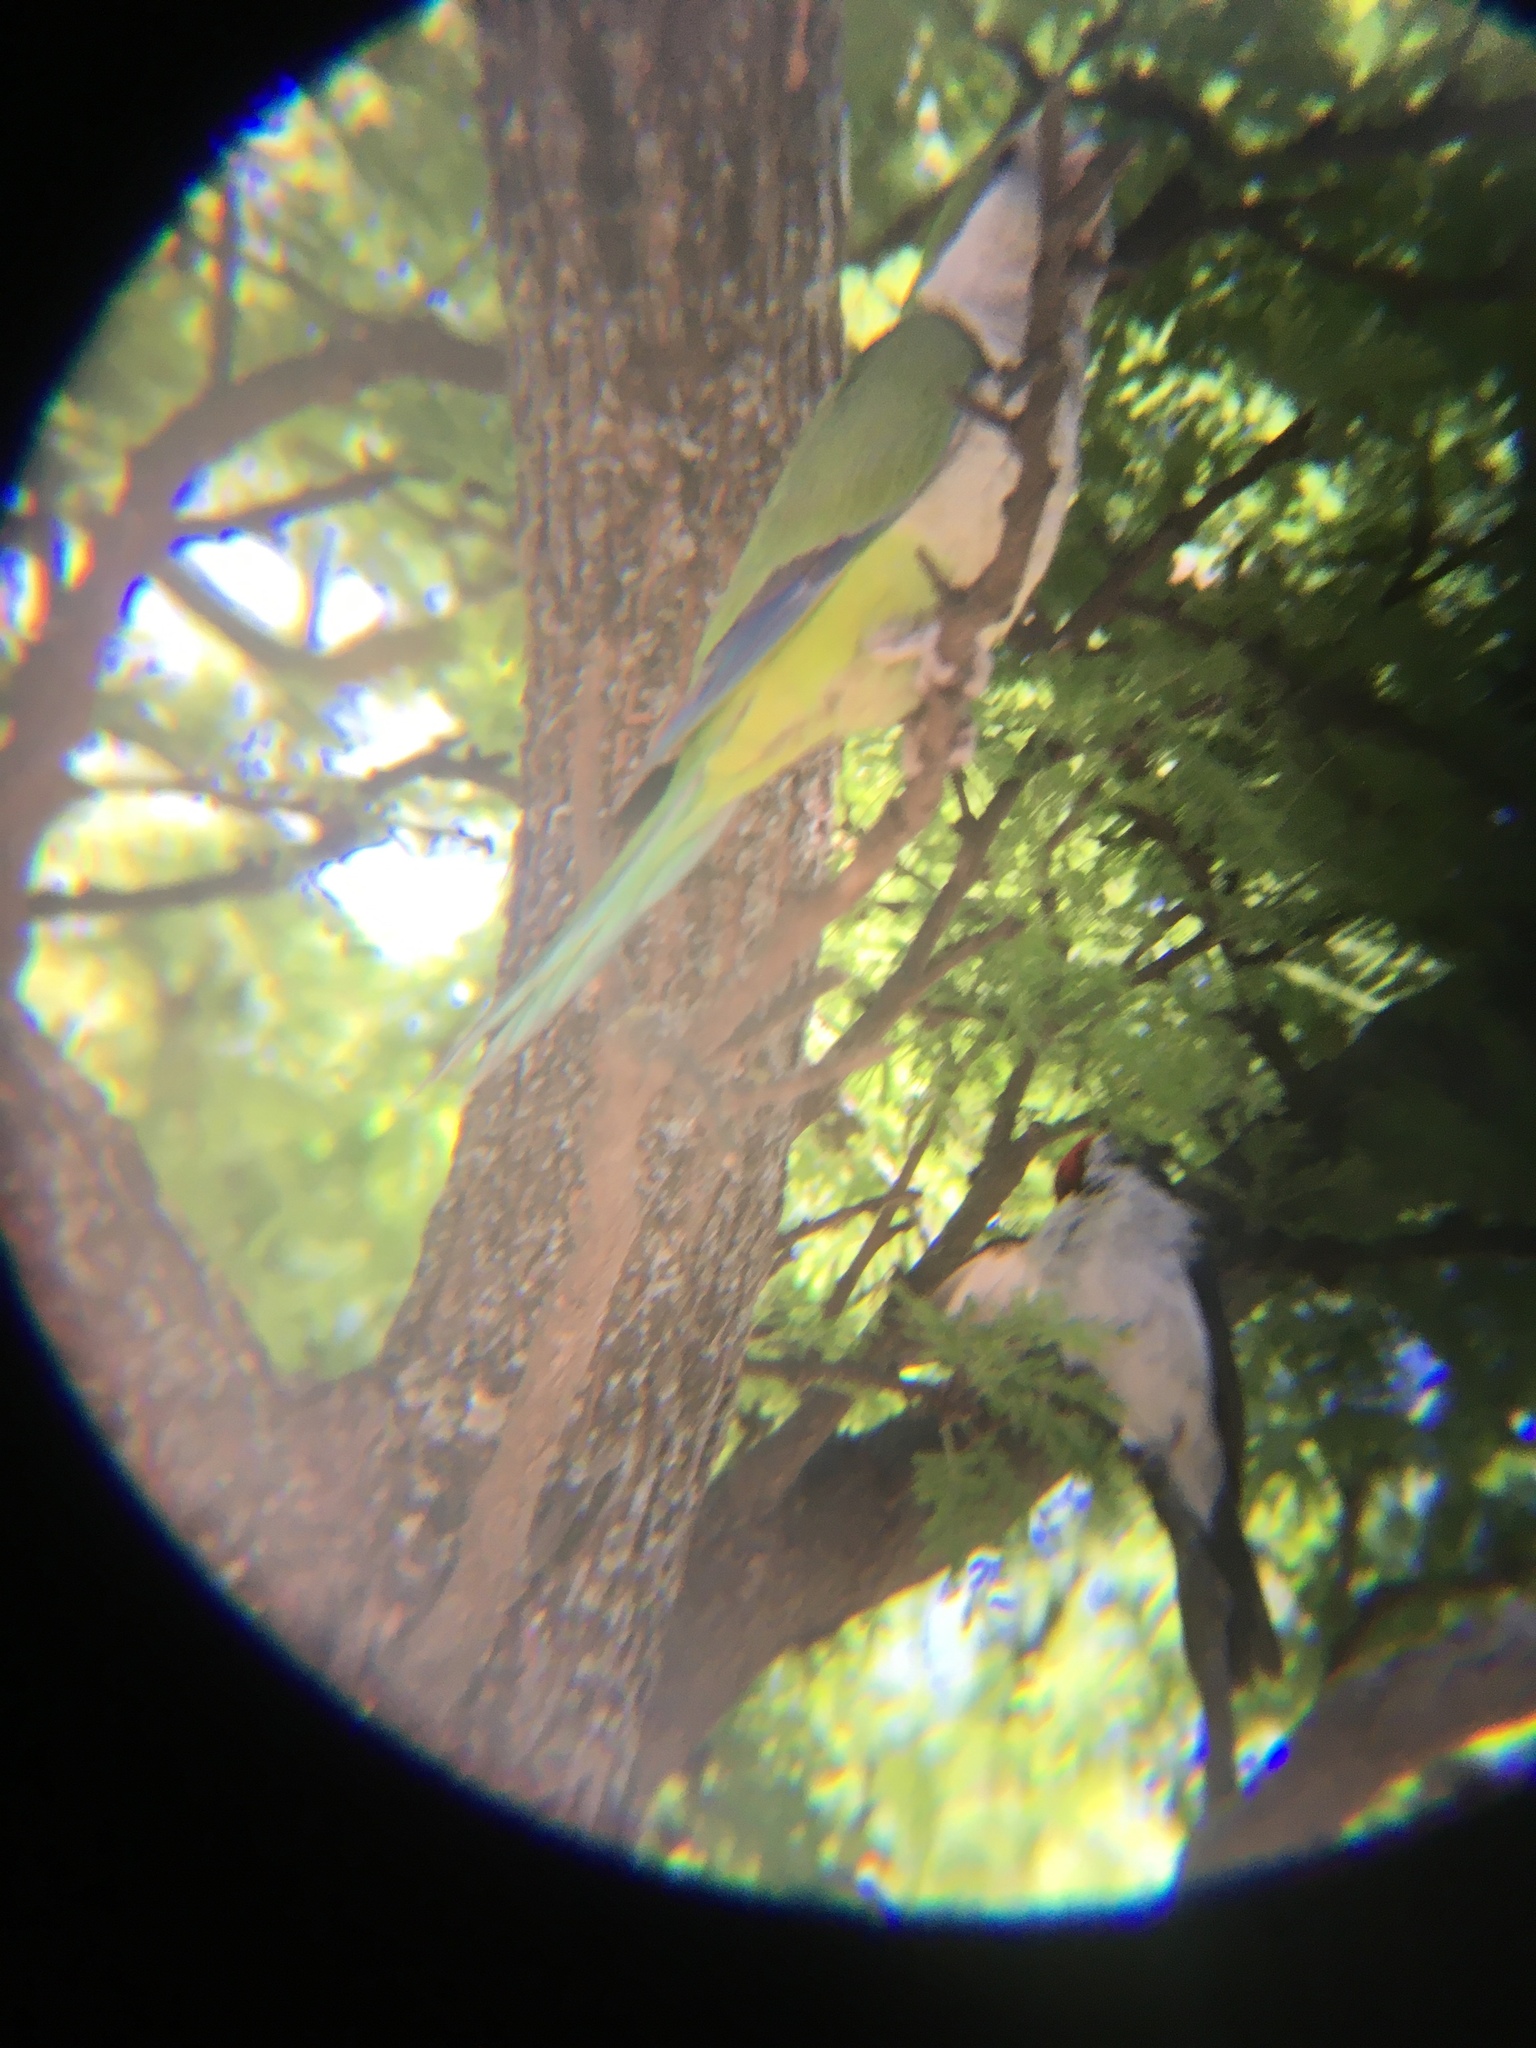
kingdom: Animalia
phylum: Chordata
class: Aves
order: Psittaciformes
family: Psittacidae
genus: Myiopsitta
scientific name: Myiopsitta monachus
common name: Monk parakeet
